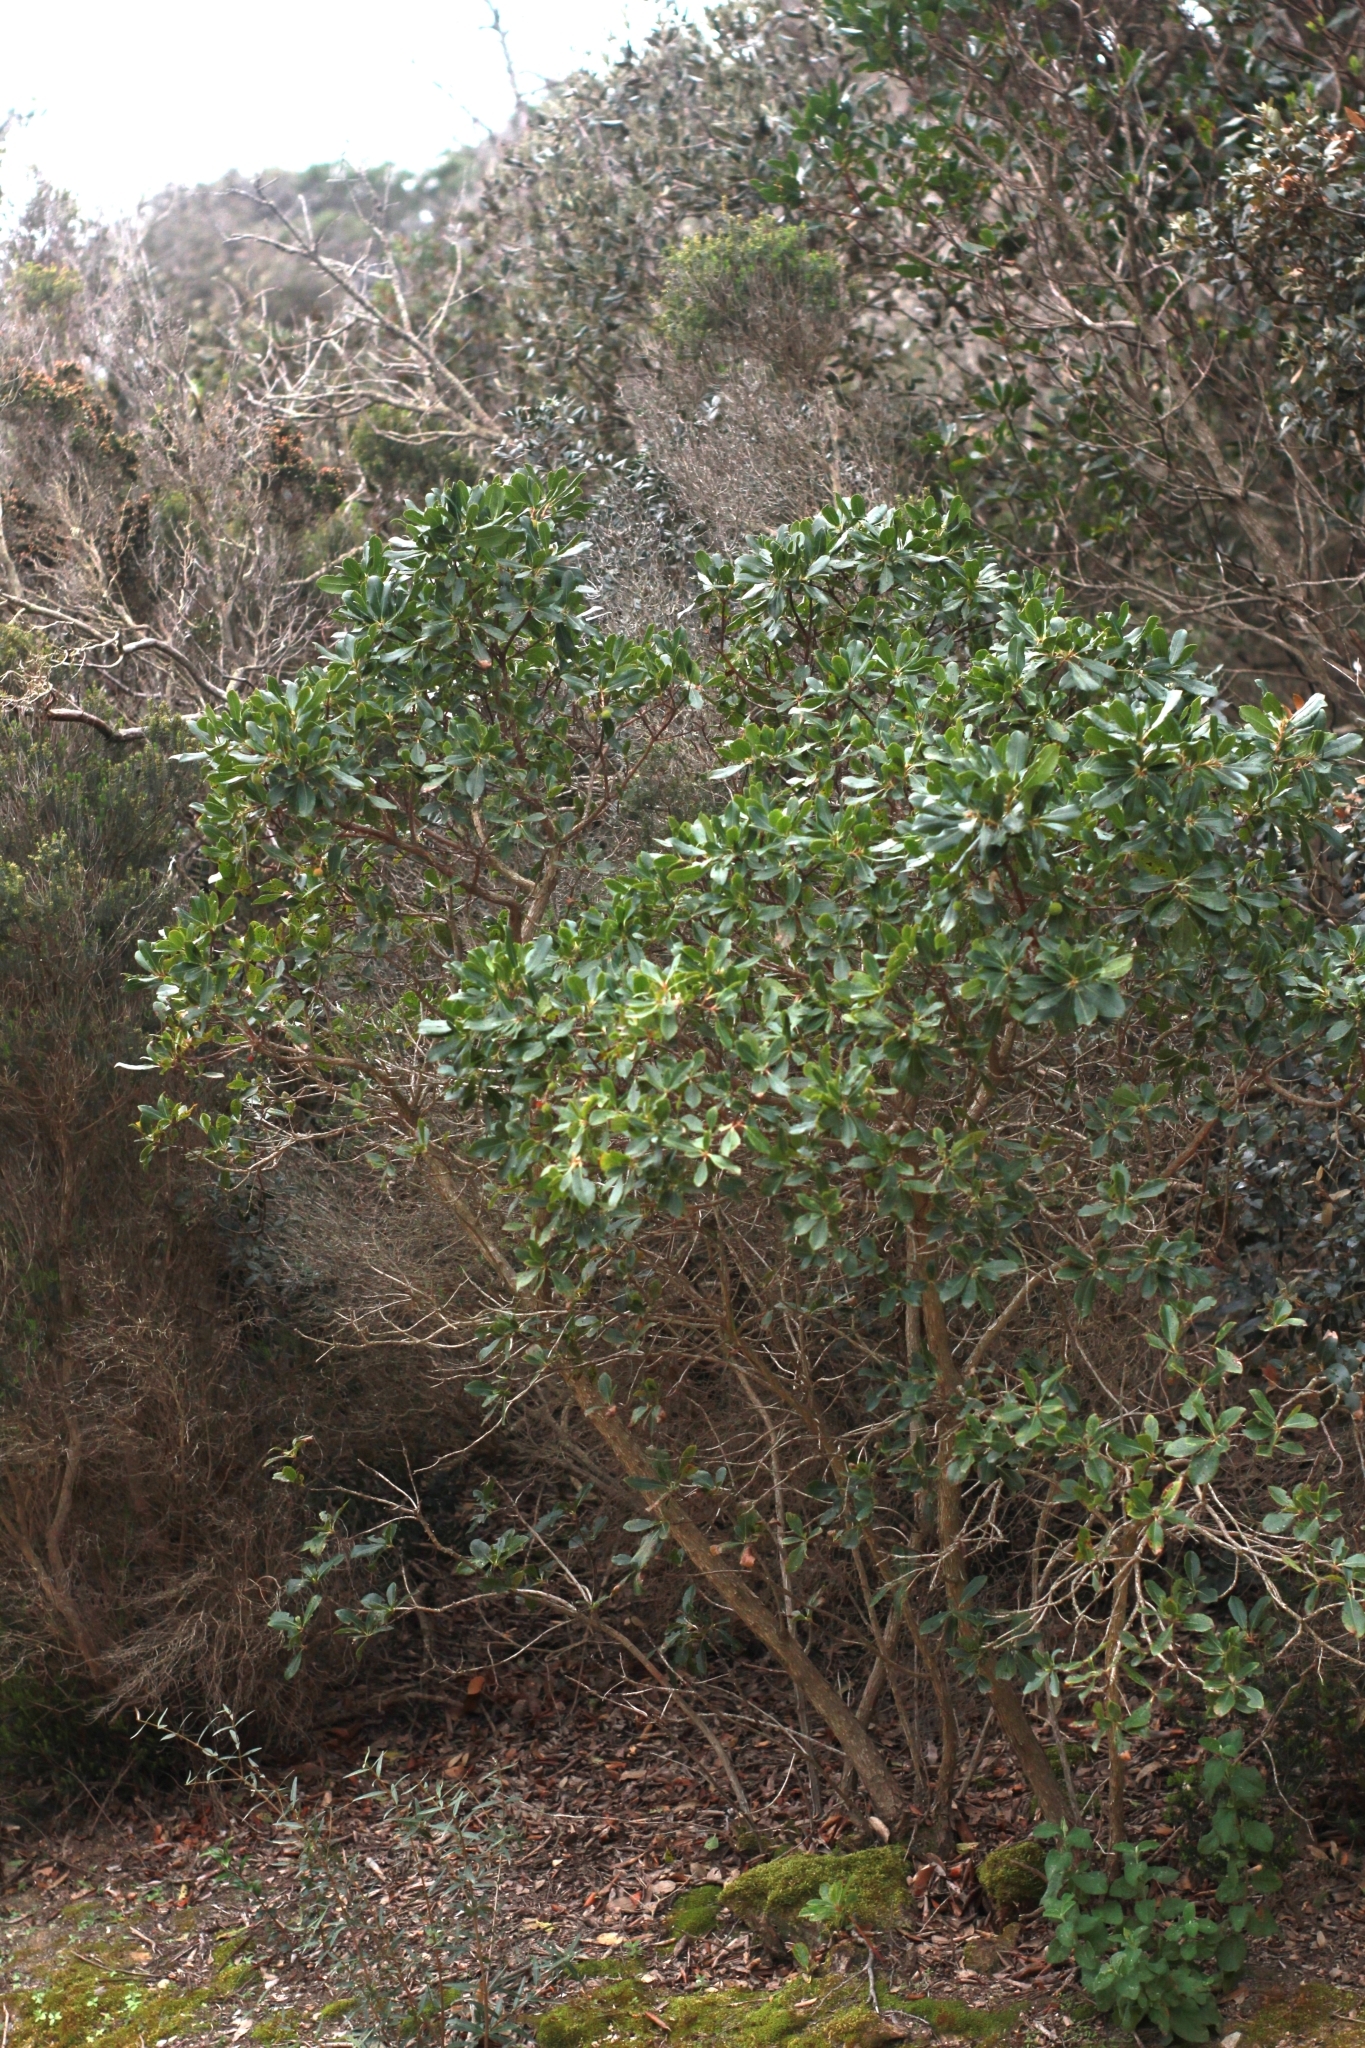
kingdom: Plantae
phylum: Tracheophyta
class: Magnoliopsida
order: Ericales
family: Ericaceae
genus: Arbutus
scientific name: Arbutus unedo
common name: Strawberry-tree
